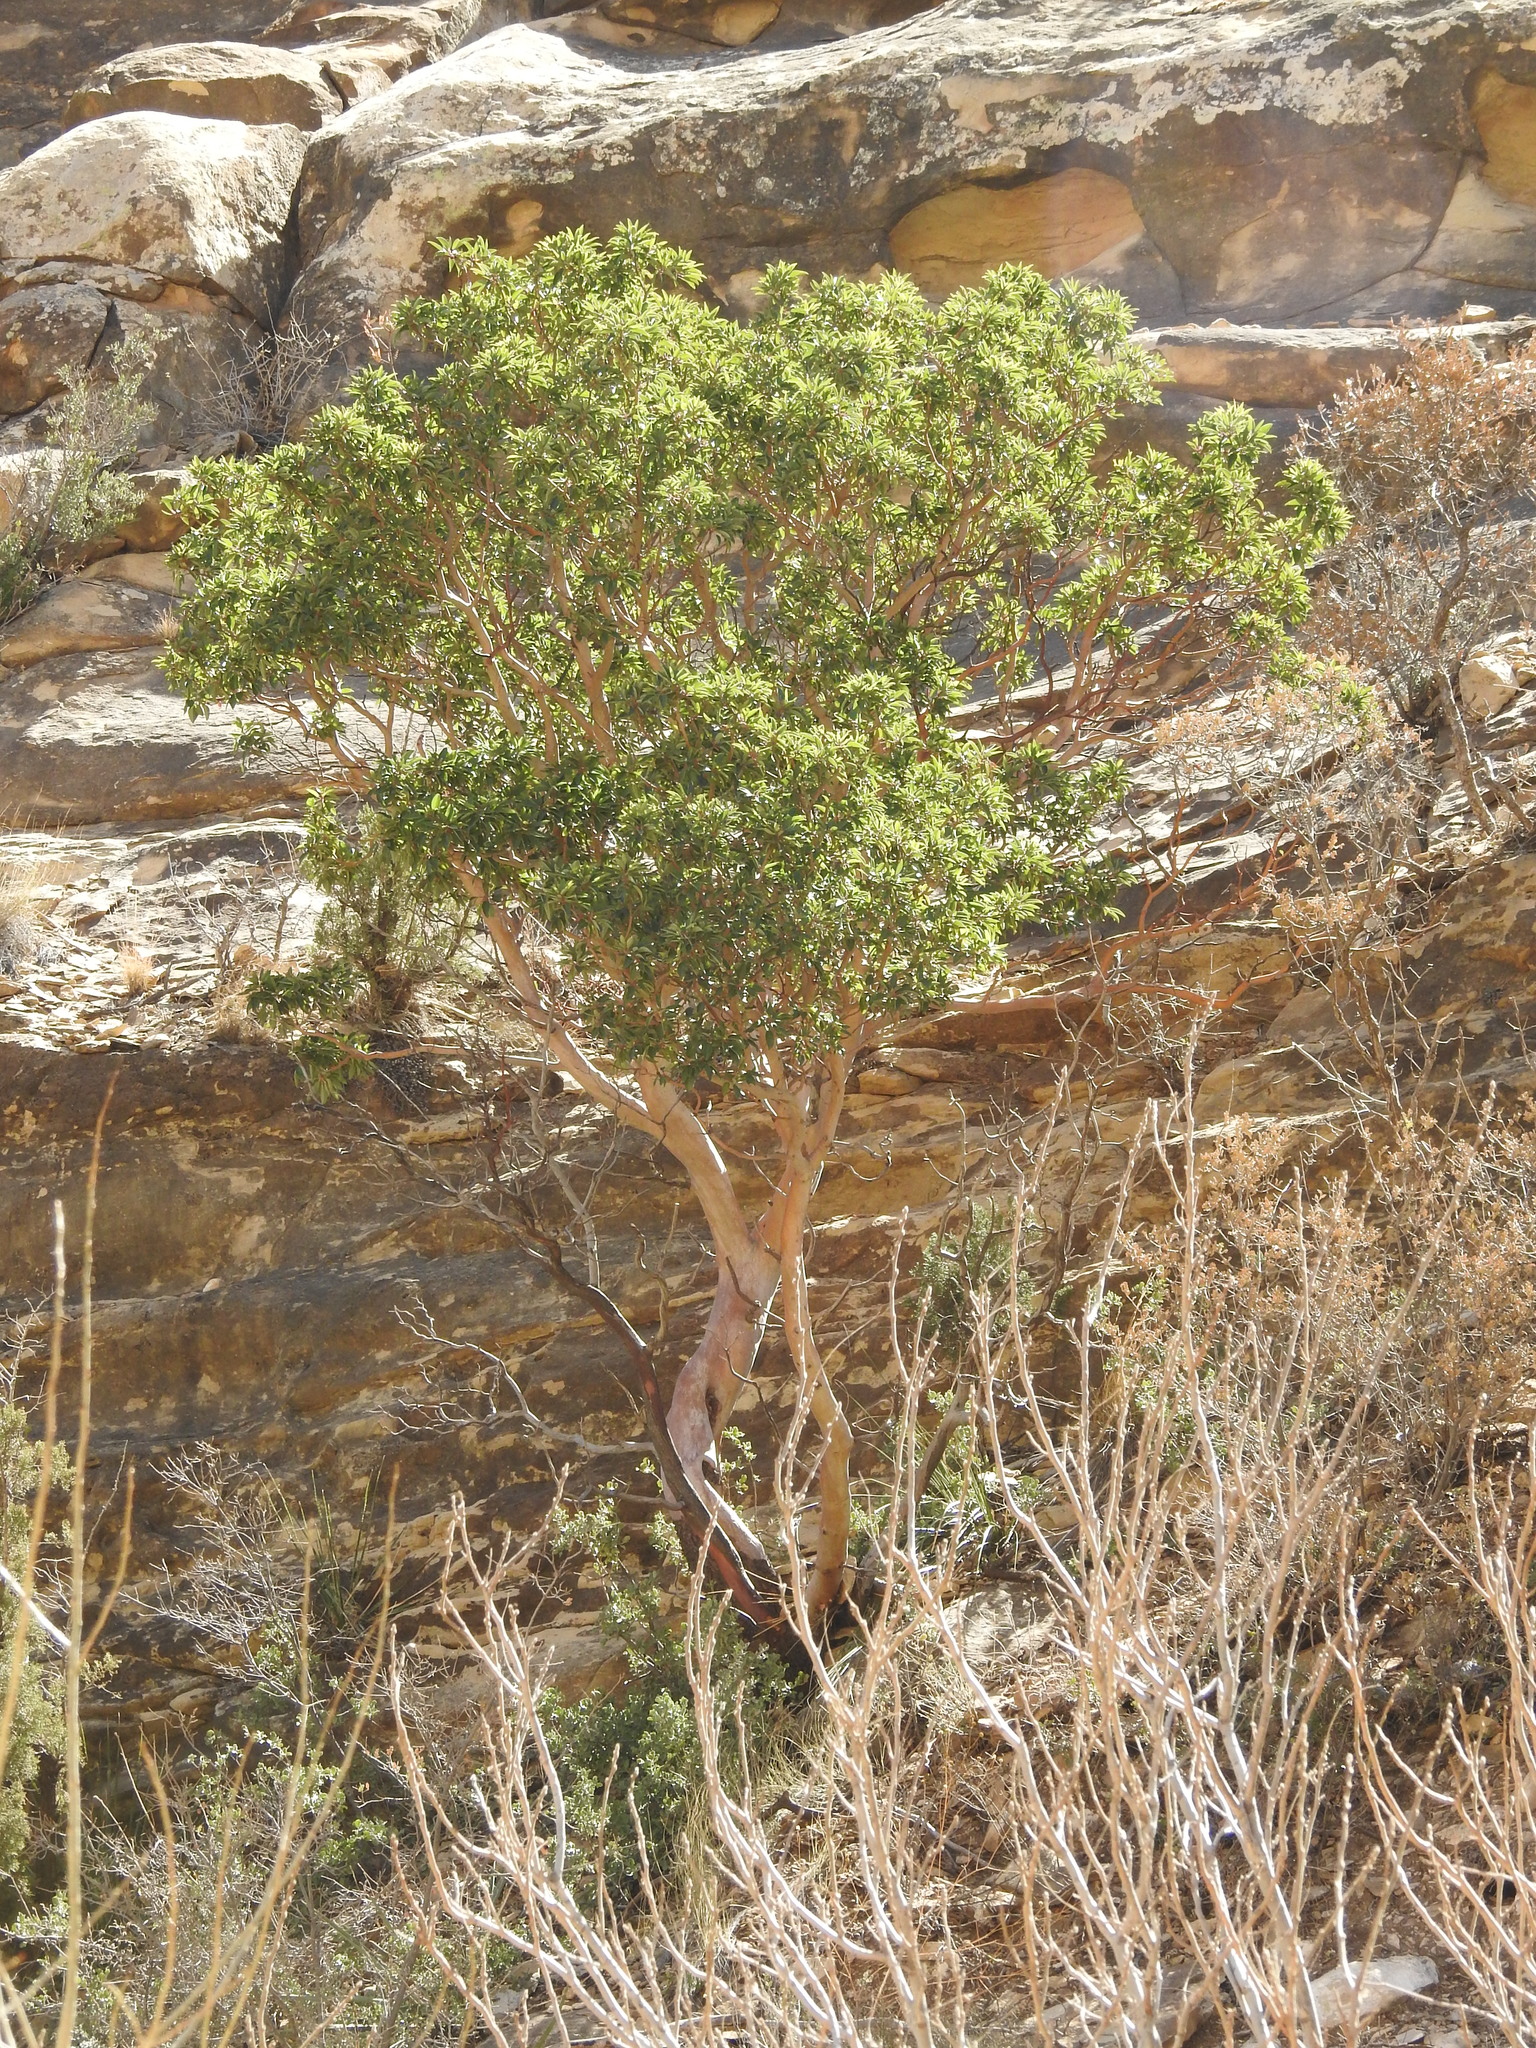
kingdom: Plantae
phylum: Tracheophyta
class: Magnoliopsida
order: Ericales
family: Ericaceae
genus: Arbutus
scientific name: Arbutus xalapensis
